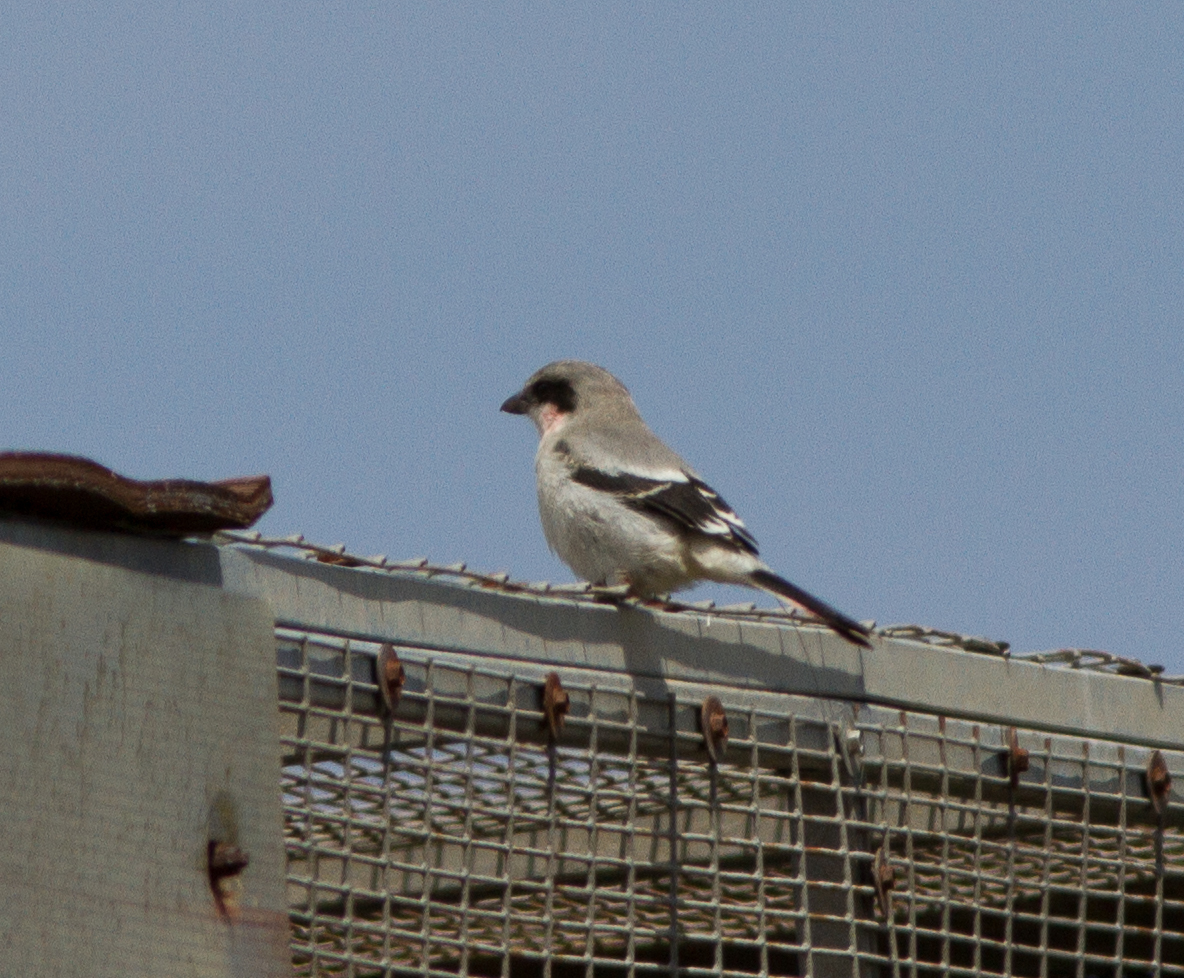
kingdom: Animalia
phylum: Chordata
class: Aves
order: Passeriformes
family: Laniidae
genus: Lanius
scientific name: Lanius ludovicianus
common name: Loggerhead shrike
